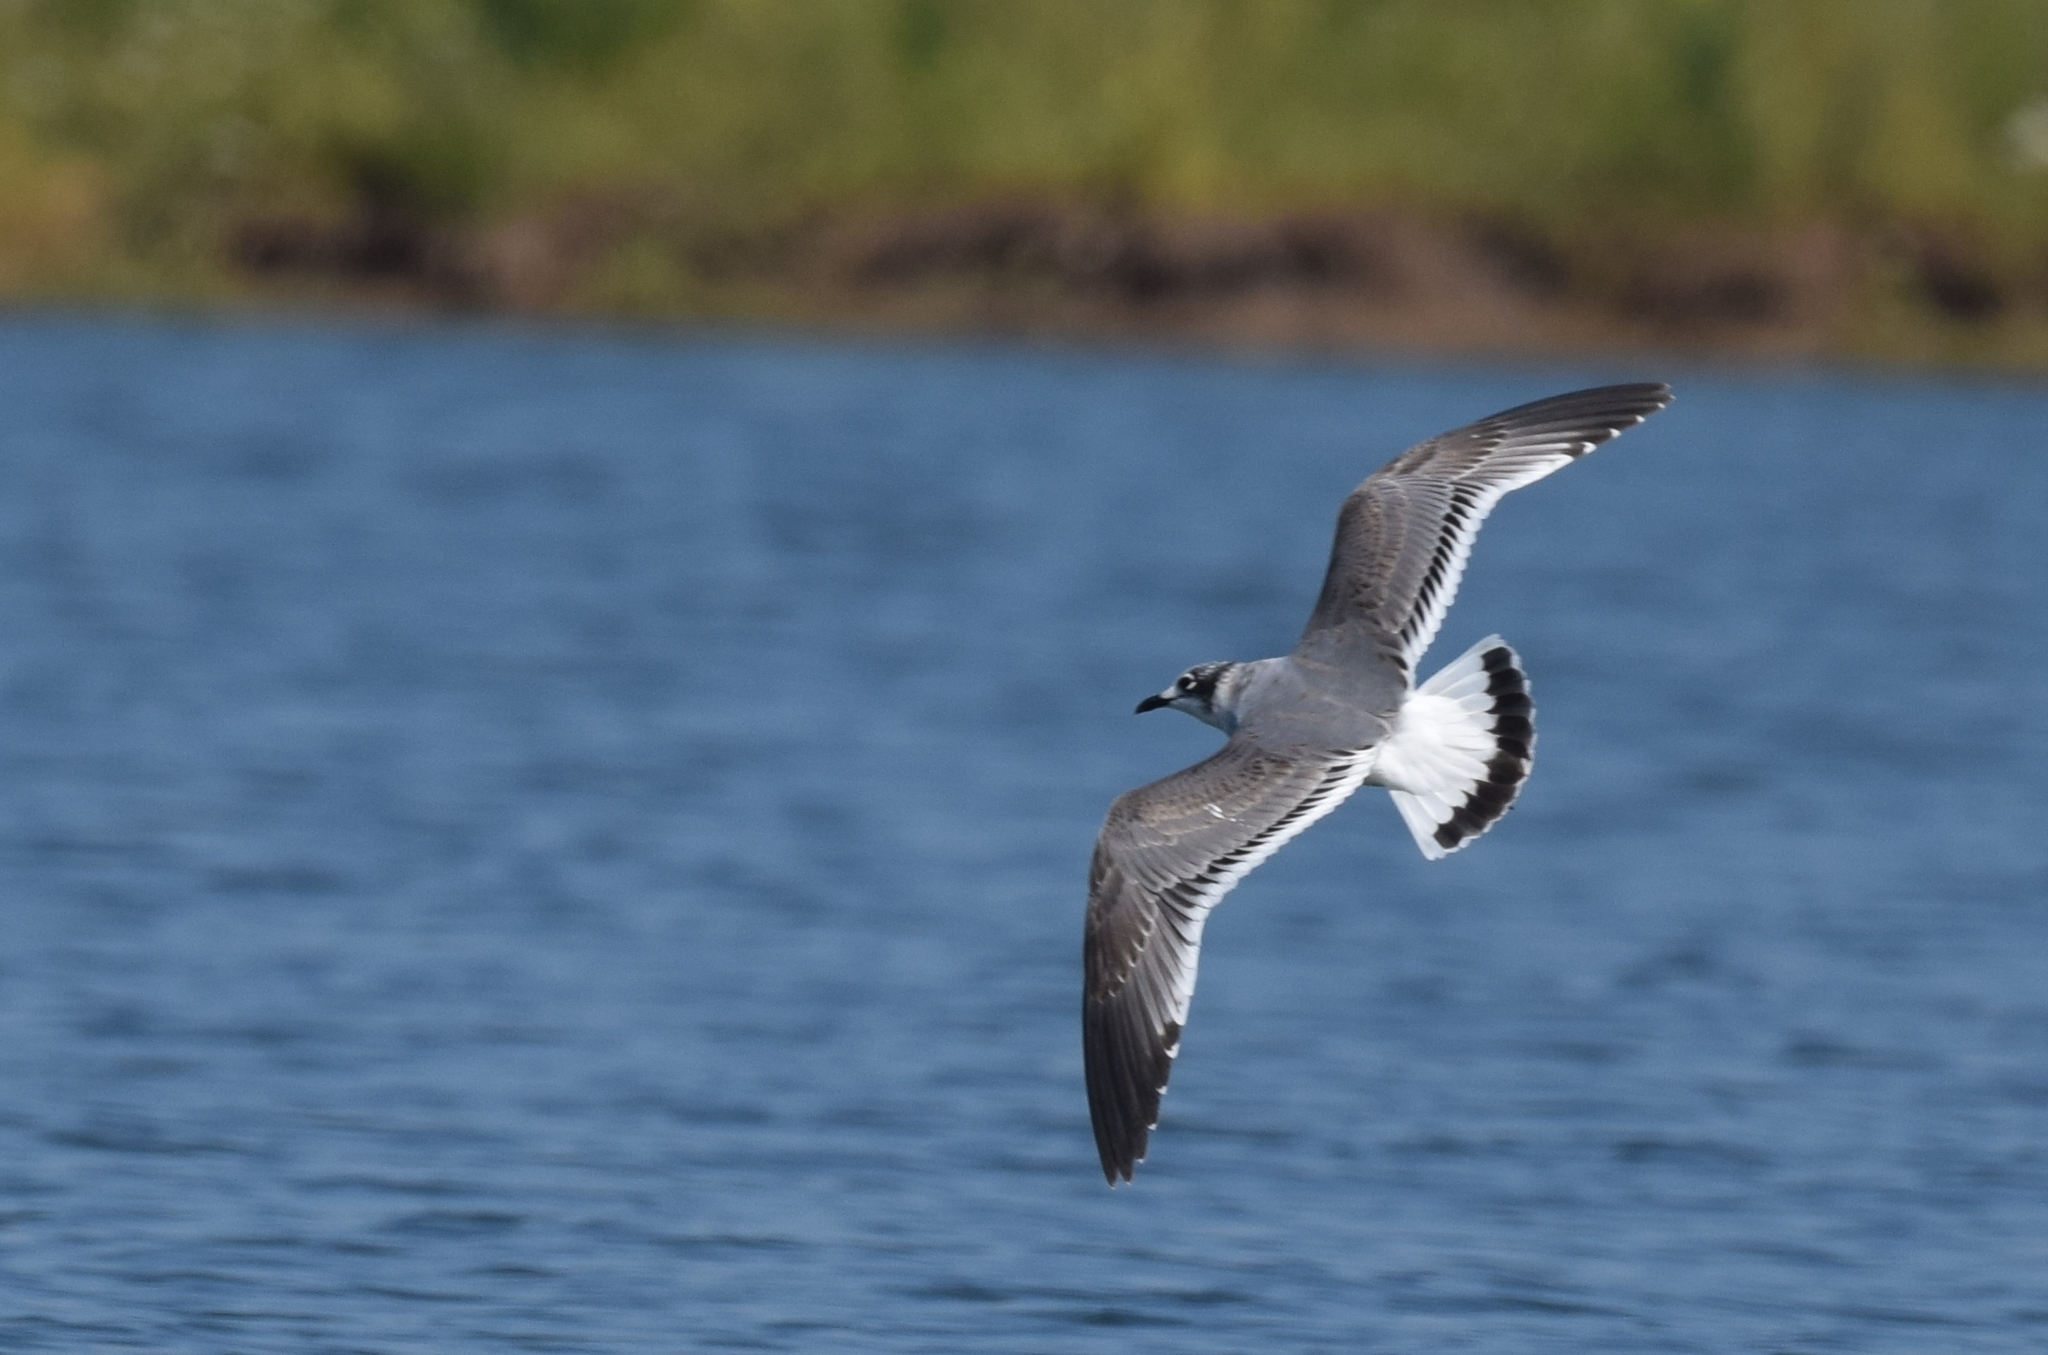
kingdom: Animalia
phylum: Chordata
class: Aves
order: Charadriiformes
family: Laridae
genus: Leucophaeus
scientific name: Leucophaeus pipixcan
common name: Franklin's gull
